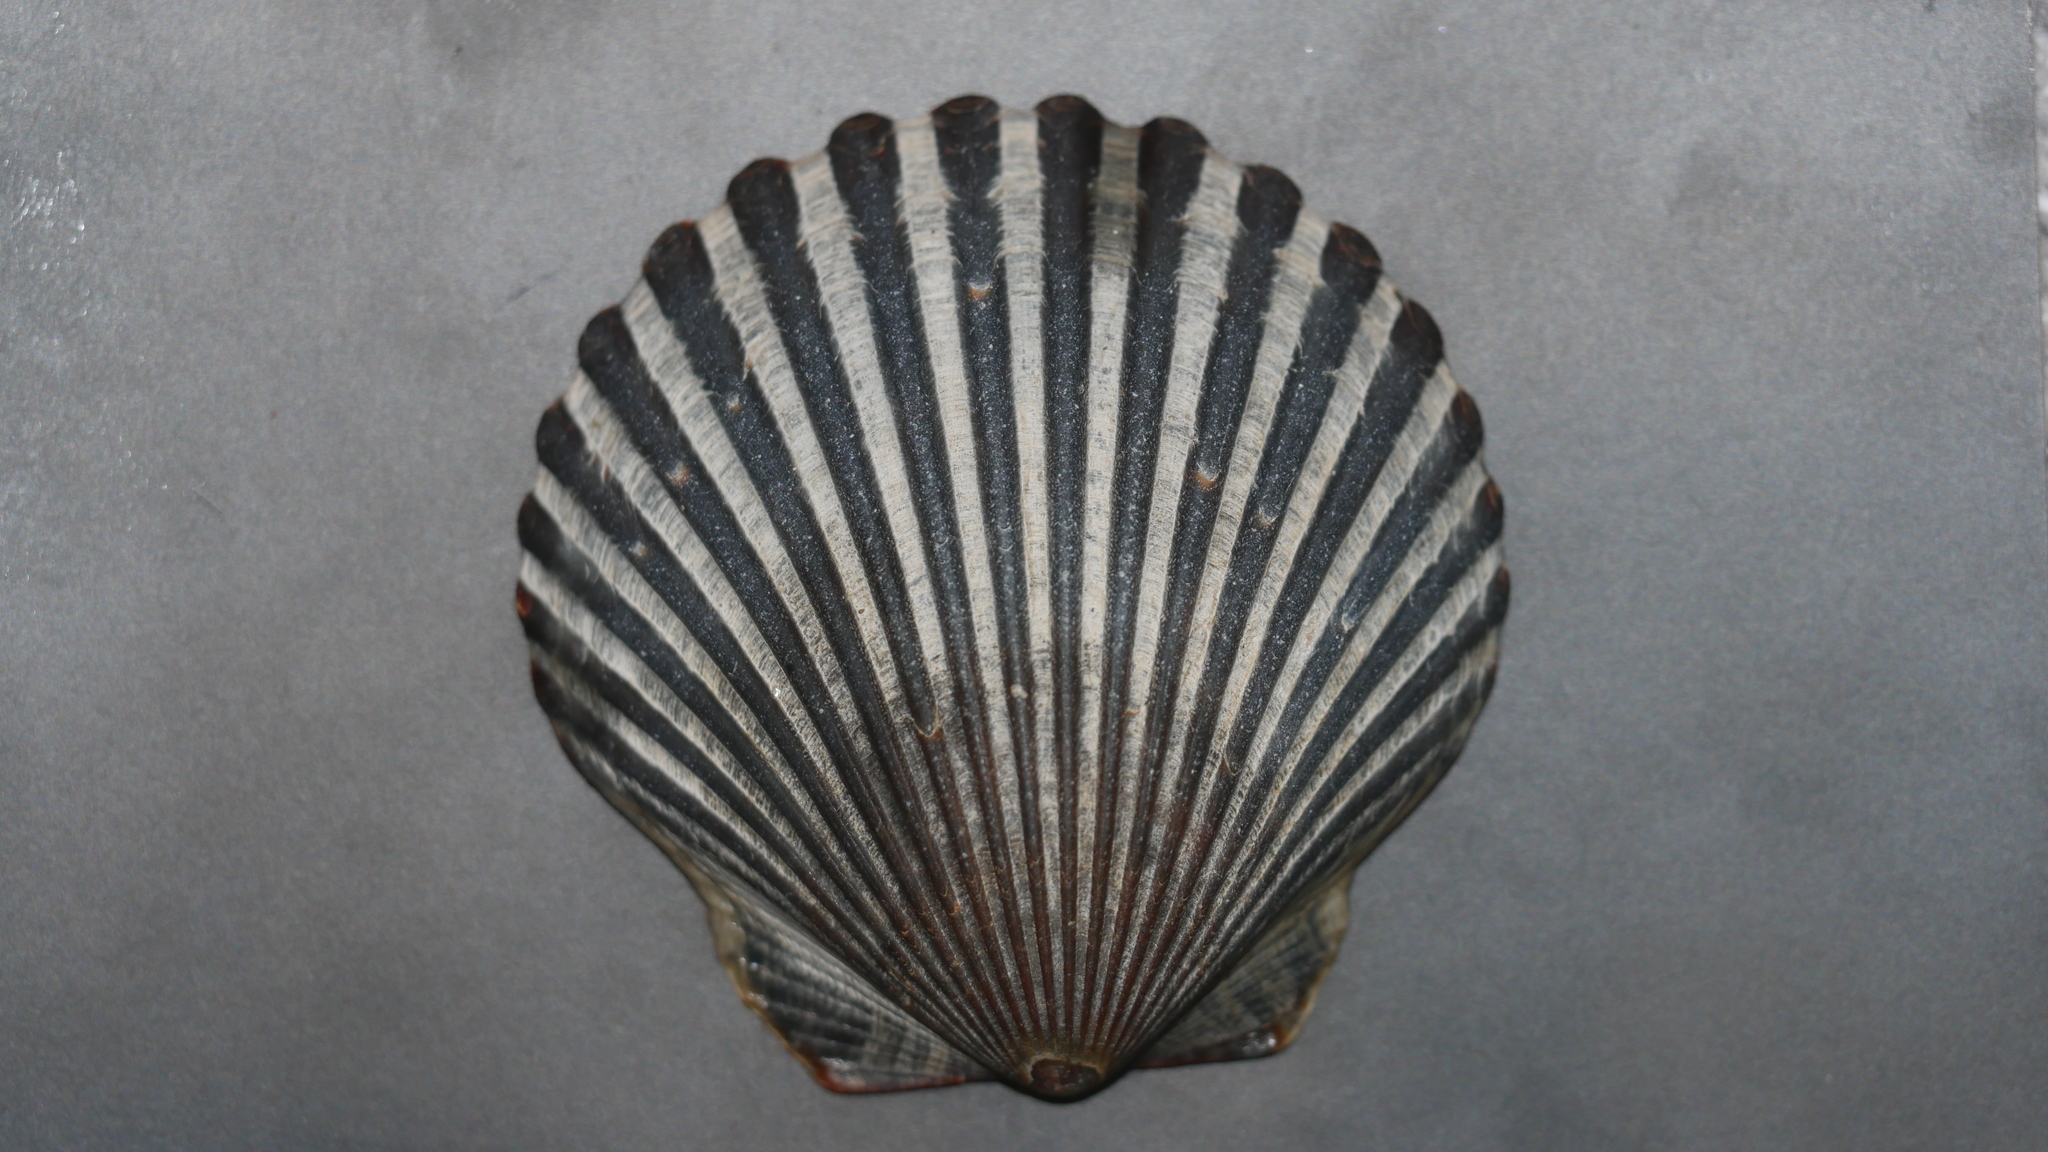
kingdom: Animalia
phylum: Mollusca
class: Bivalvia
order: Pectinida
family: Pectinidae
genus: Argopecten
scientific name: Argopecten irradians
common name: Atlantic bay scallop
